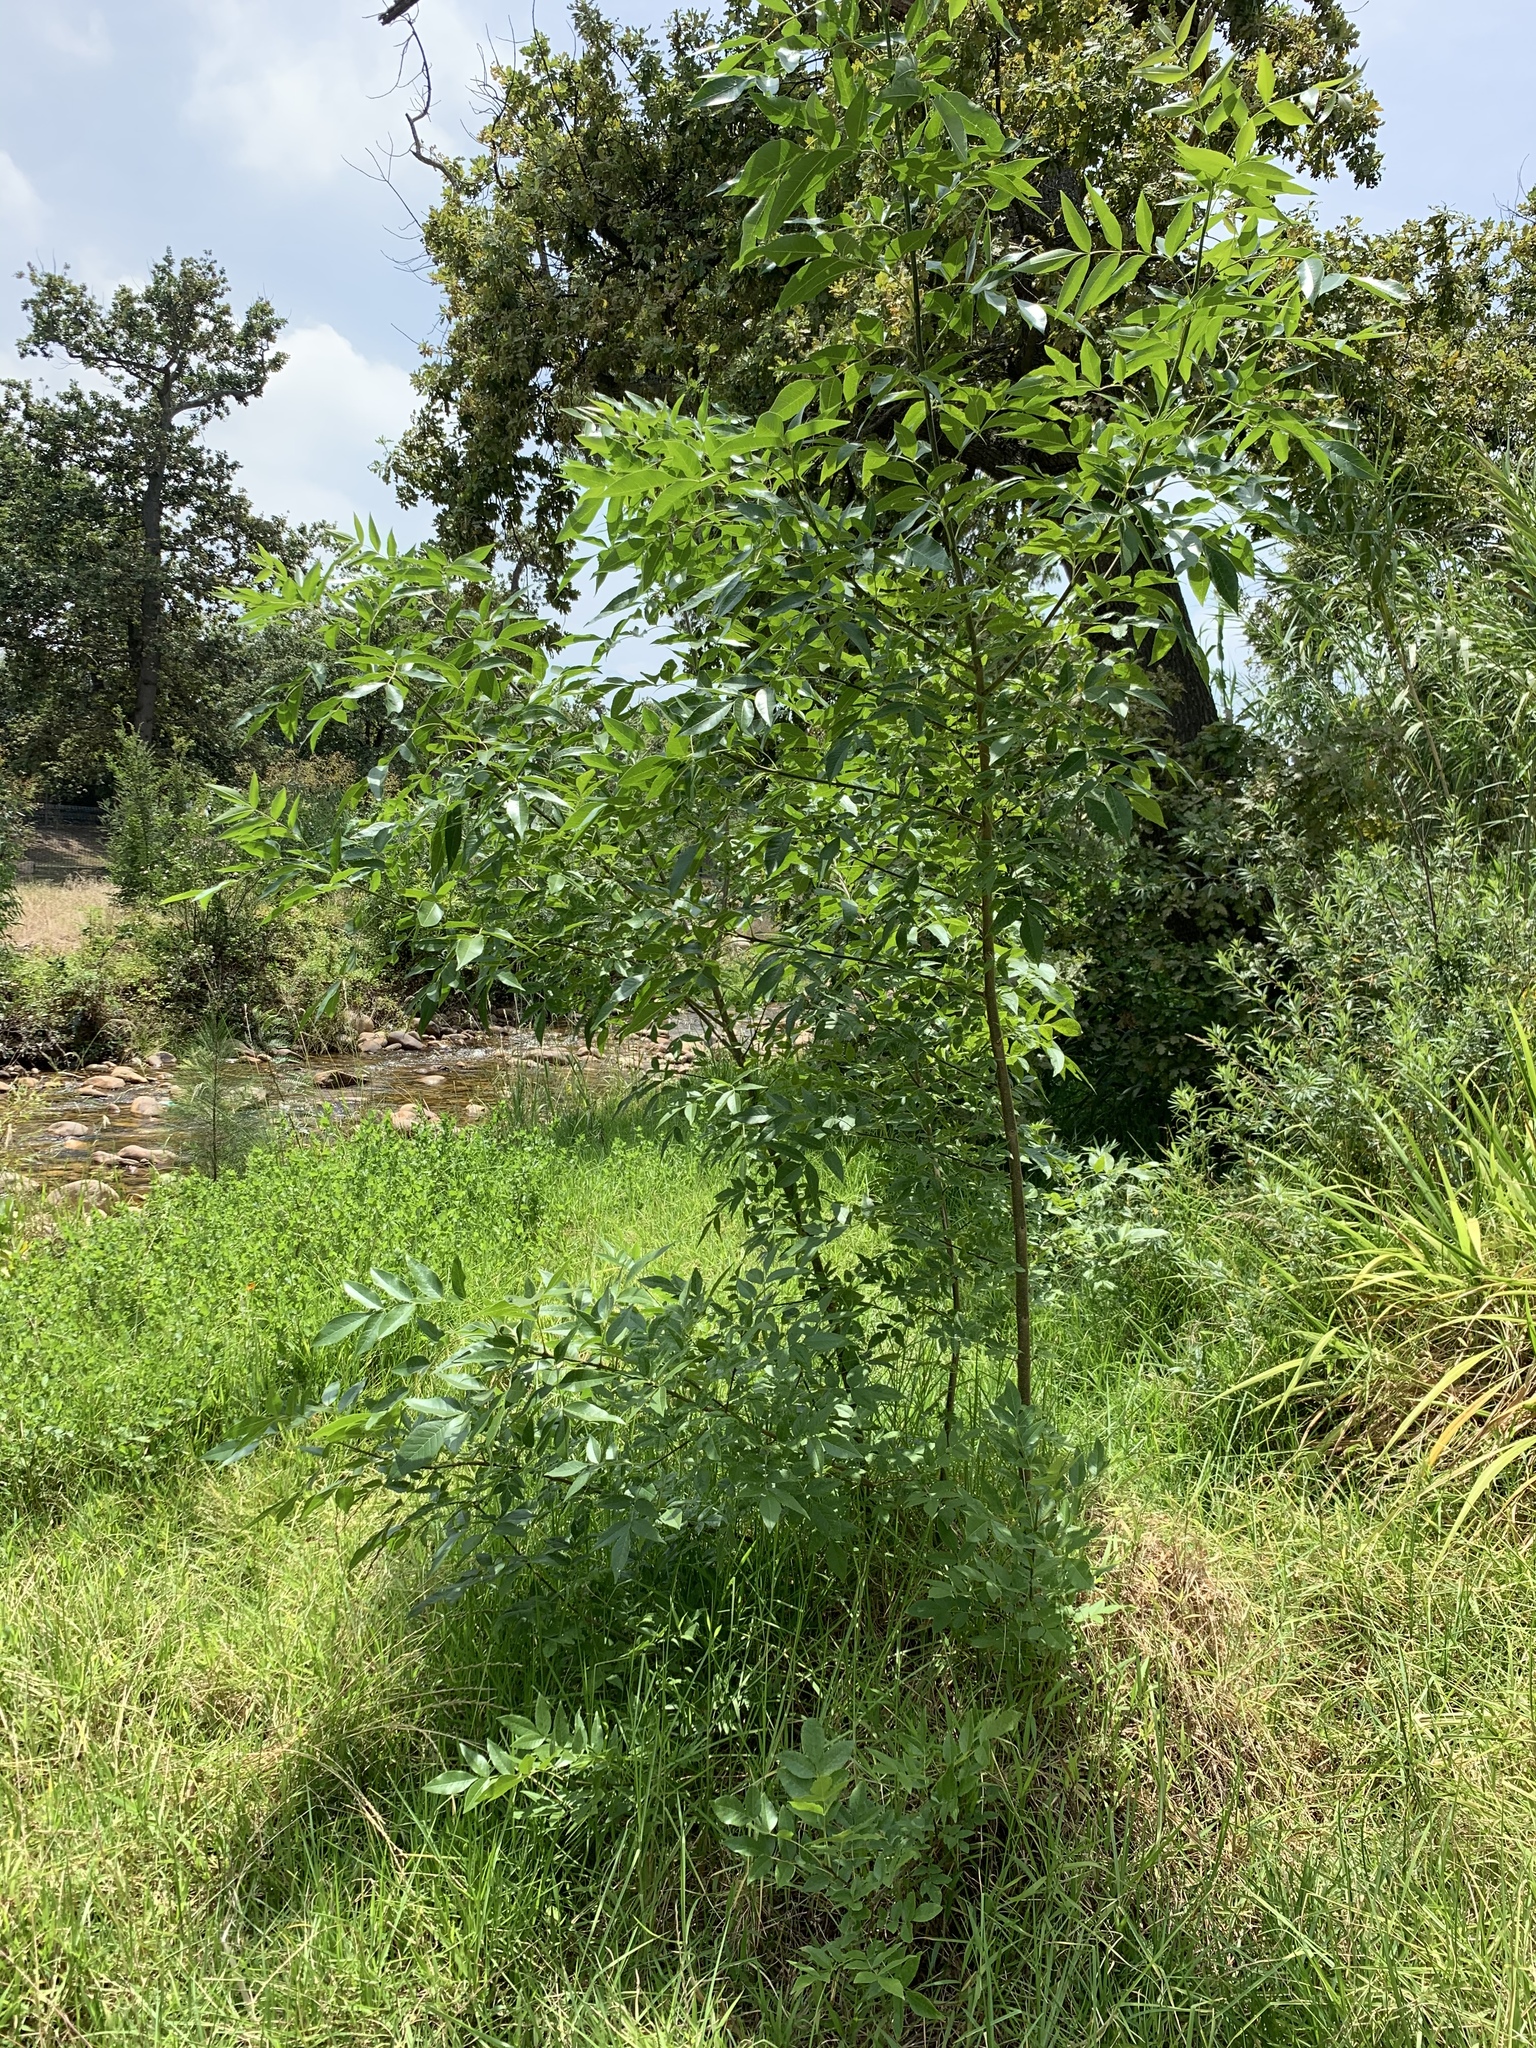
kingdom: Plantae
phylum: Tracheophyta
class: Magnoliopsida
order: Lamiales
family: Oleaceae
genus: Fraxinus
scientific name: Fraxinus pennsylvanica
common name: Green ash
